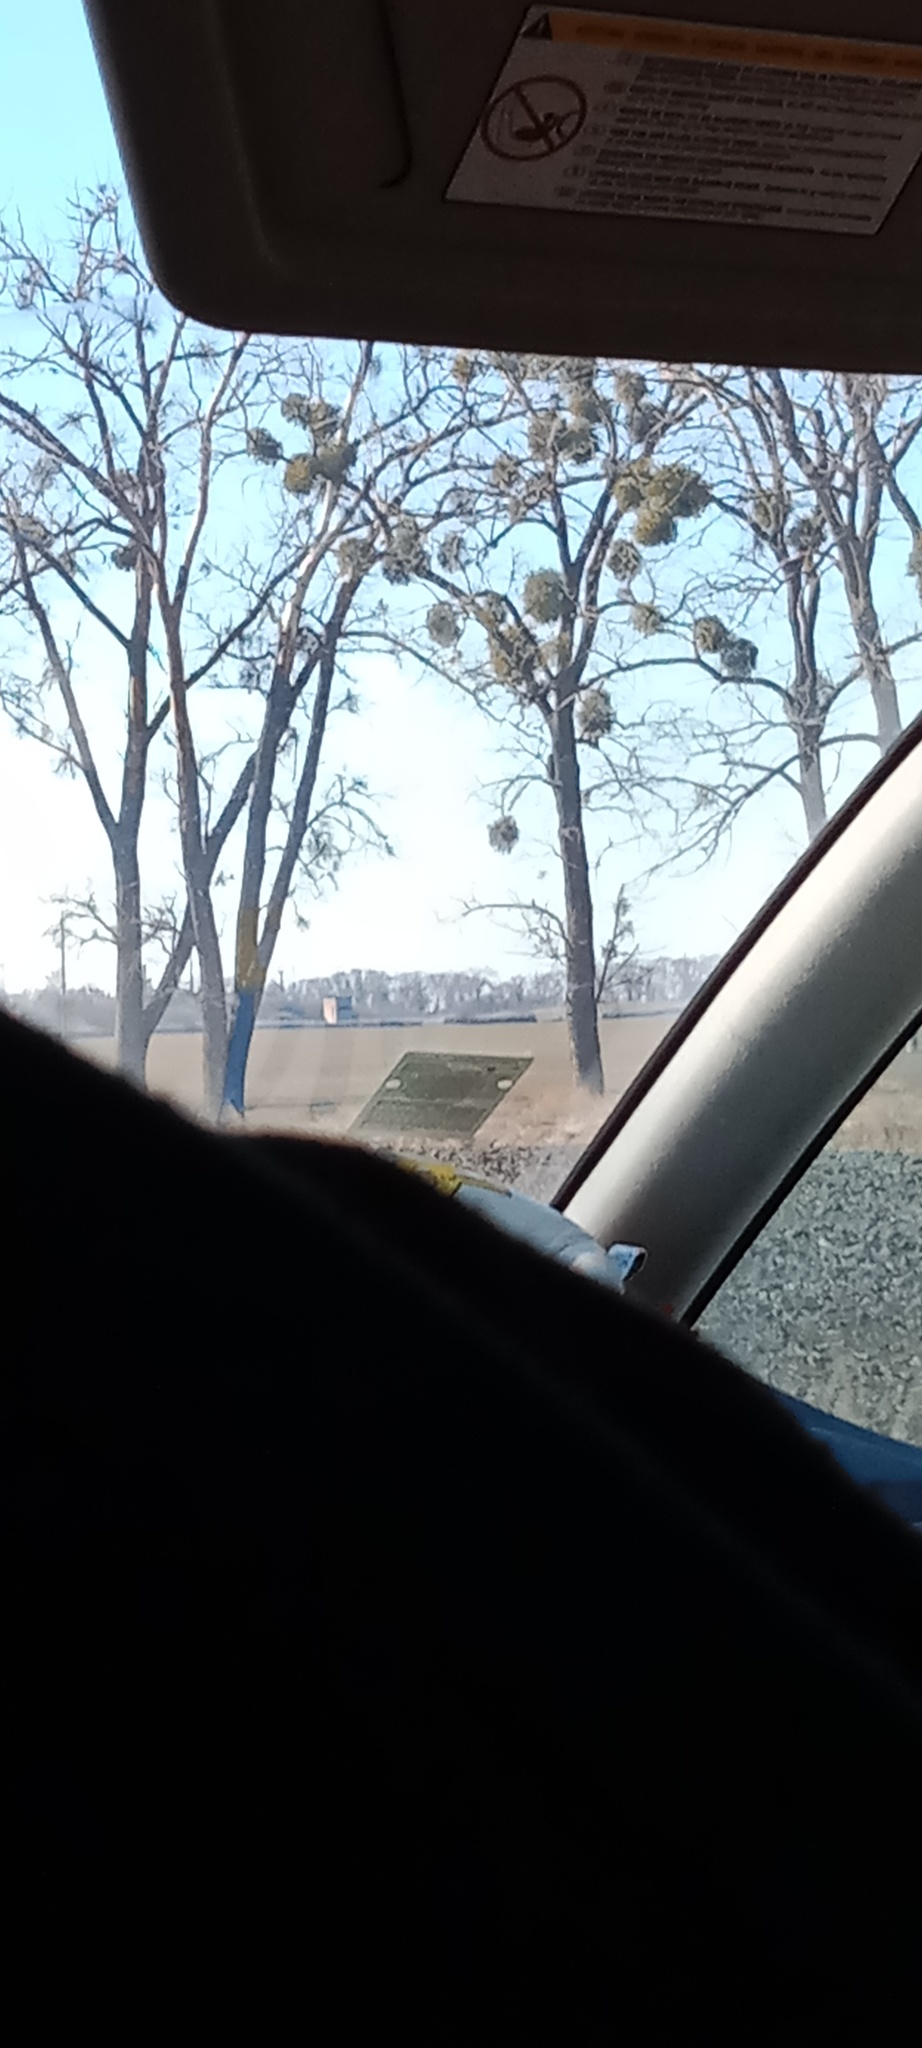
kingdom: Plantae
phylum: Tracheophyta
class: Magnoliopsida
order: Santalales
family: Viscaceae
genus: Viscum
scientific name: Viscum album
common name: Mistletoe
